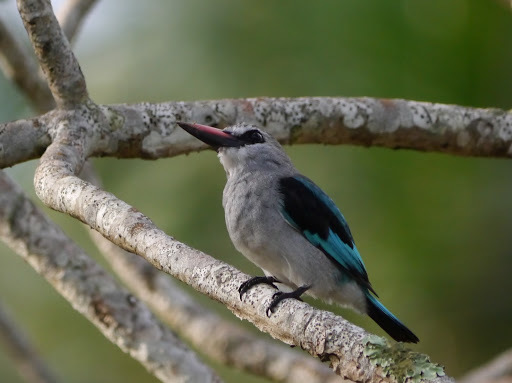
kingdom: Animalia
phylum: Chordata
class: Aves
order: Coraciiformes
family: Alcedinidae
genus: Halcyon
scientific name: Halcyon senegalensis
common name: Woodland kingfisher
